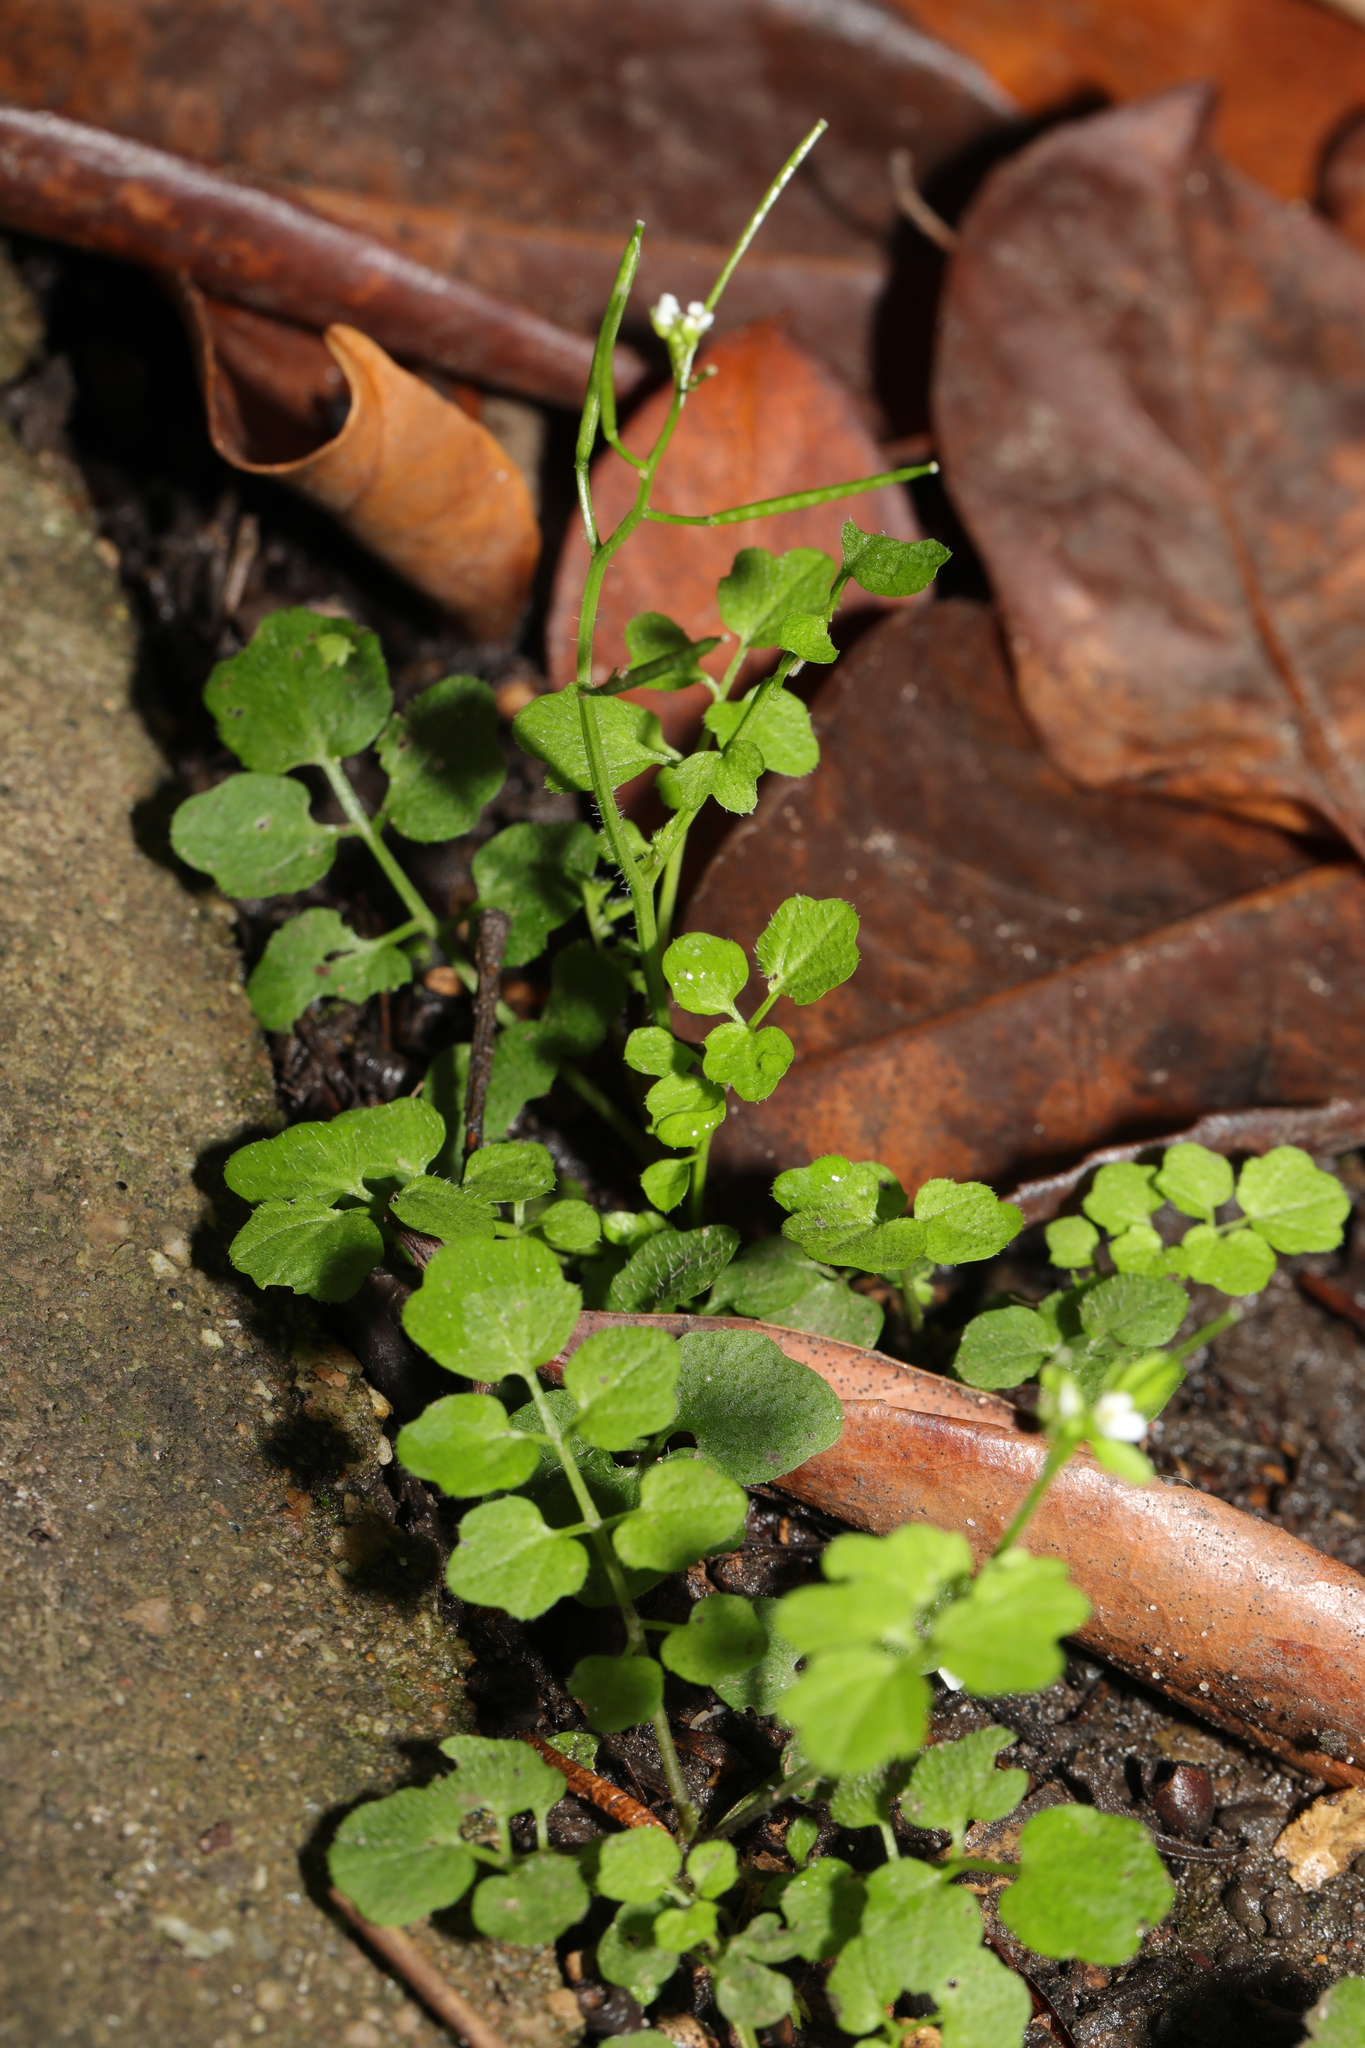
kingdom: Plantae
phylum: Tracheophyta
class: Magnoliopsida
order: Brassicales
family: Brassicaceae
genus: Cardamine
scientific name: Cardamine flexuosa
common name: Woodland bittercress
